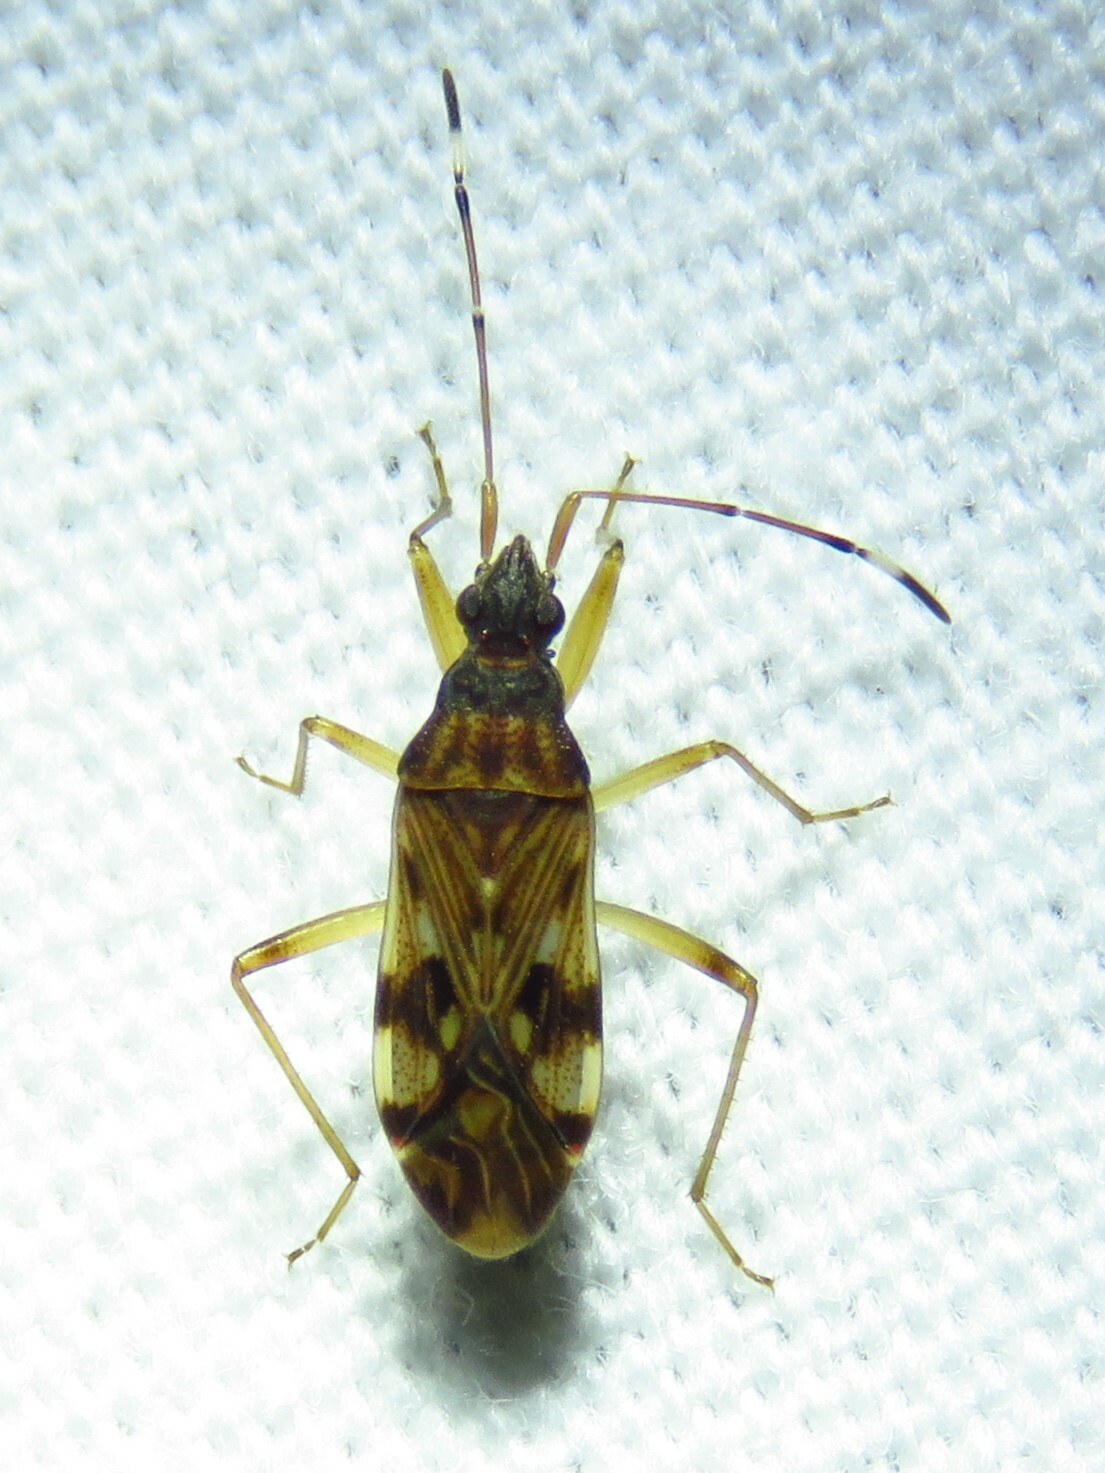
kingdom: Animalia
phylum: Arthropoda
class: Insecta
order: Hemiptera
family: Rhyparochromidae
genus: Ozophora
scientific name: Ozophora picturata
